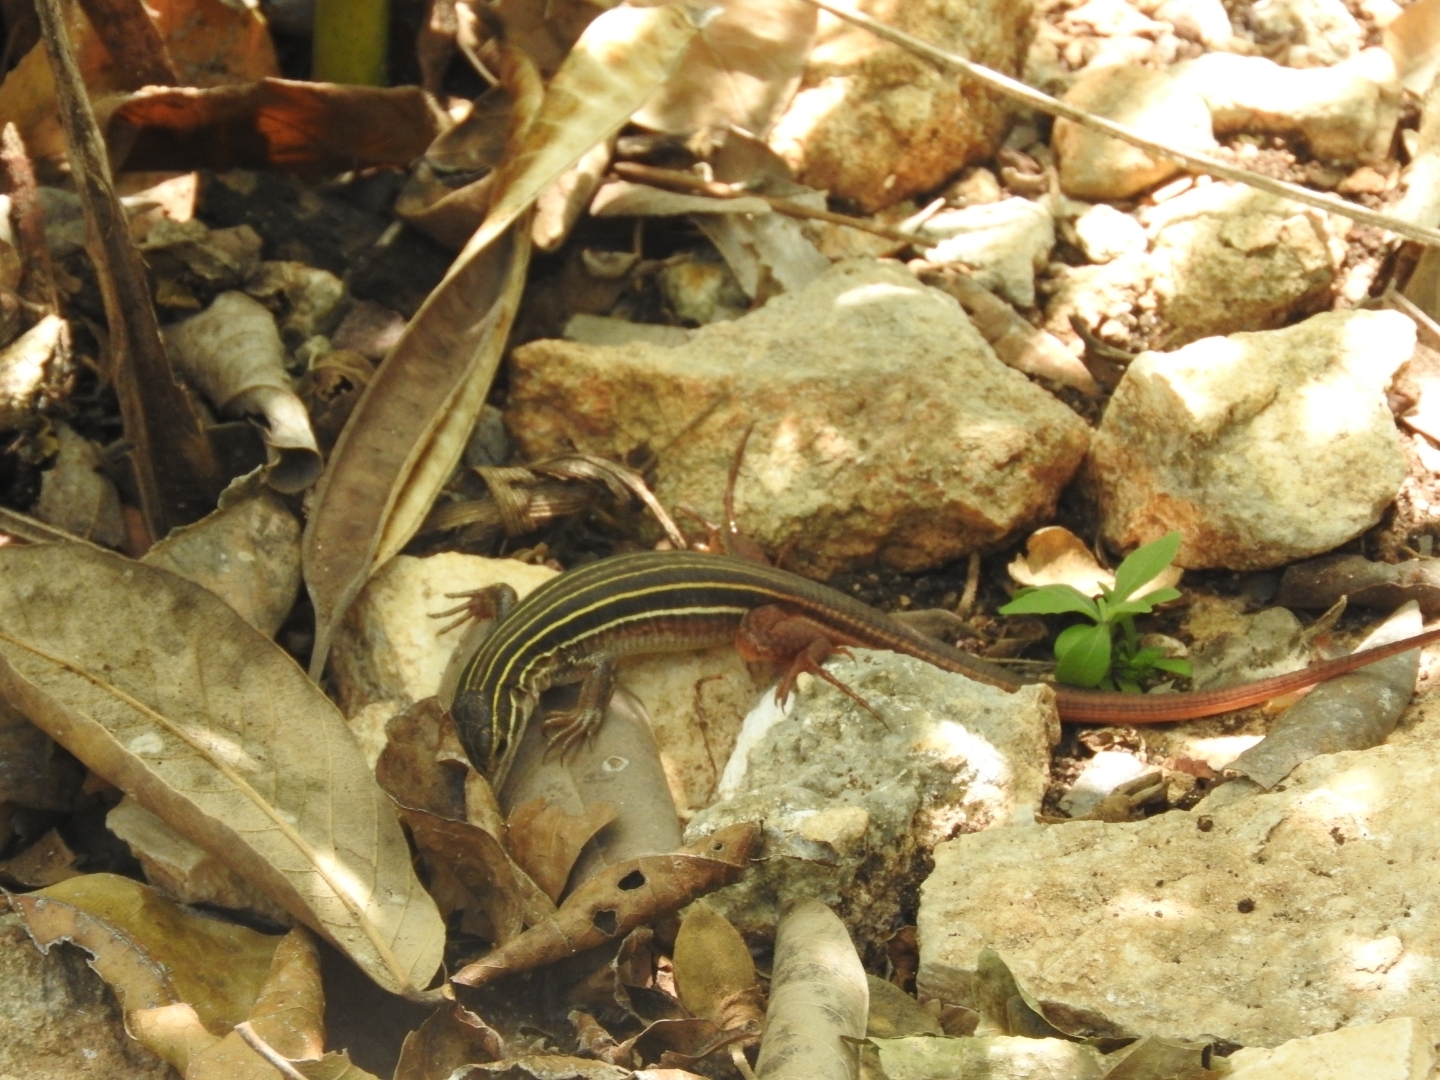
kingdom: Animalia
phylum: Chordata
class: Squamata
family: Teiidae
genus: Aspidoscelis
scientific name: Aspidoscelis angusticeps
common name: Yucatan whiptail
